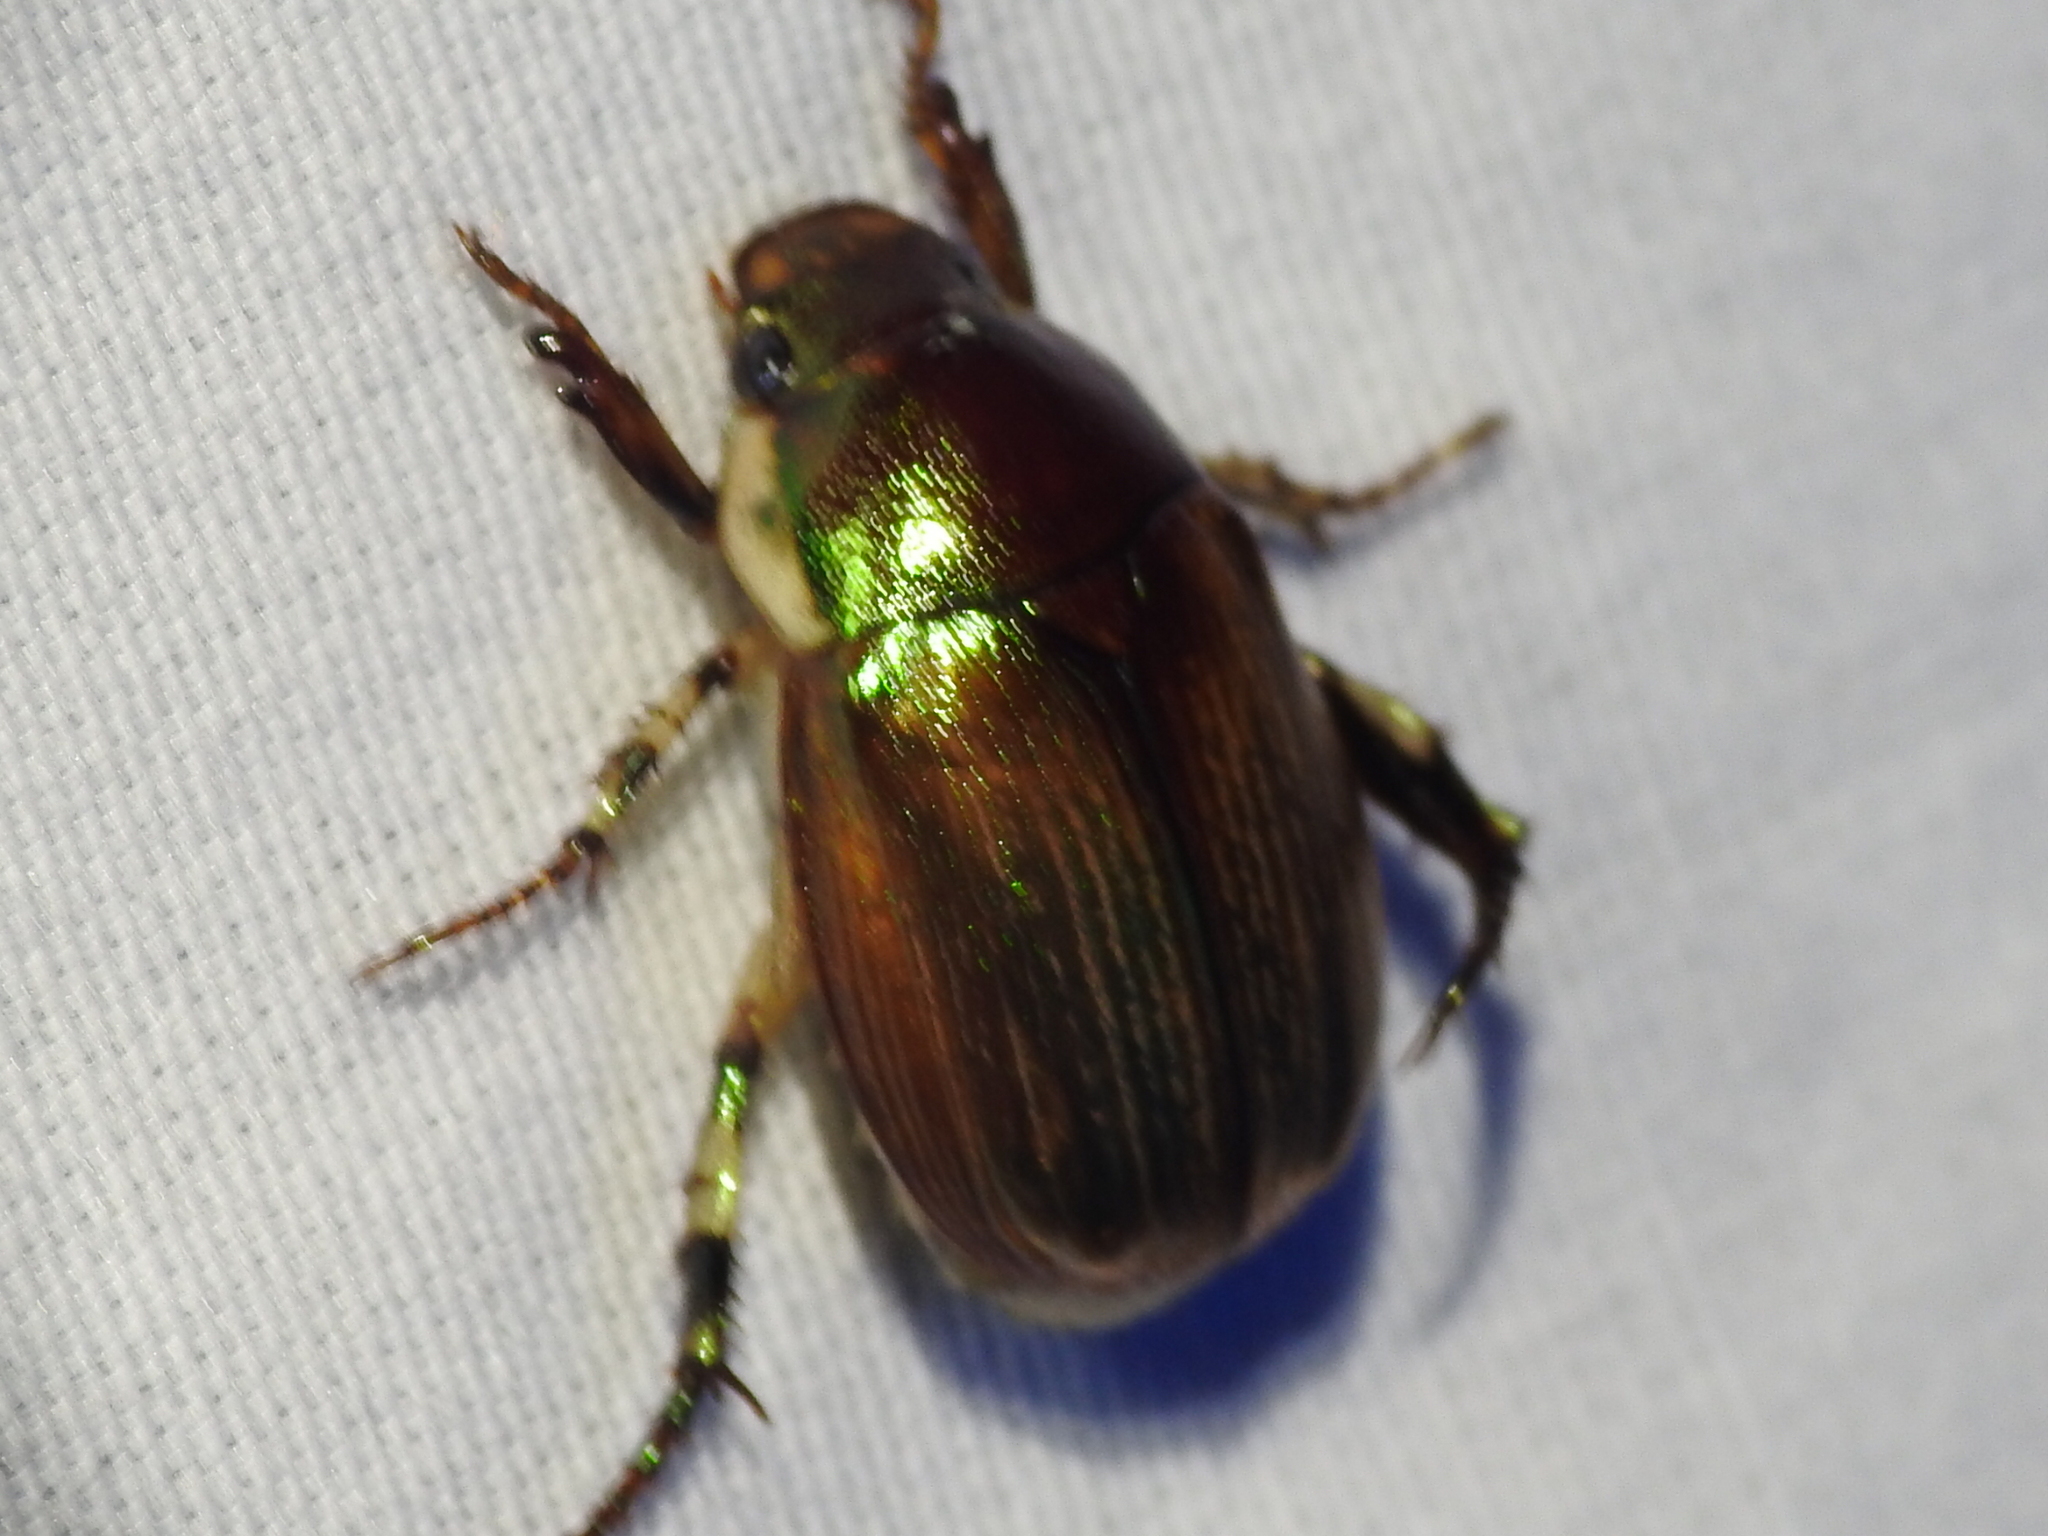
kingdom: Animalia
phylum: Arthropoda
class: Insecta
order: Coleoptera
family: Scarabaeidae
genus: Callistethus
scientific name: Callistethus marginatus
